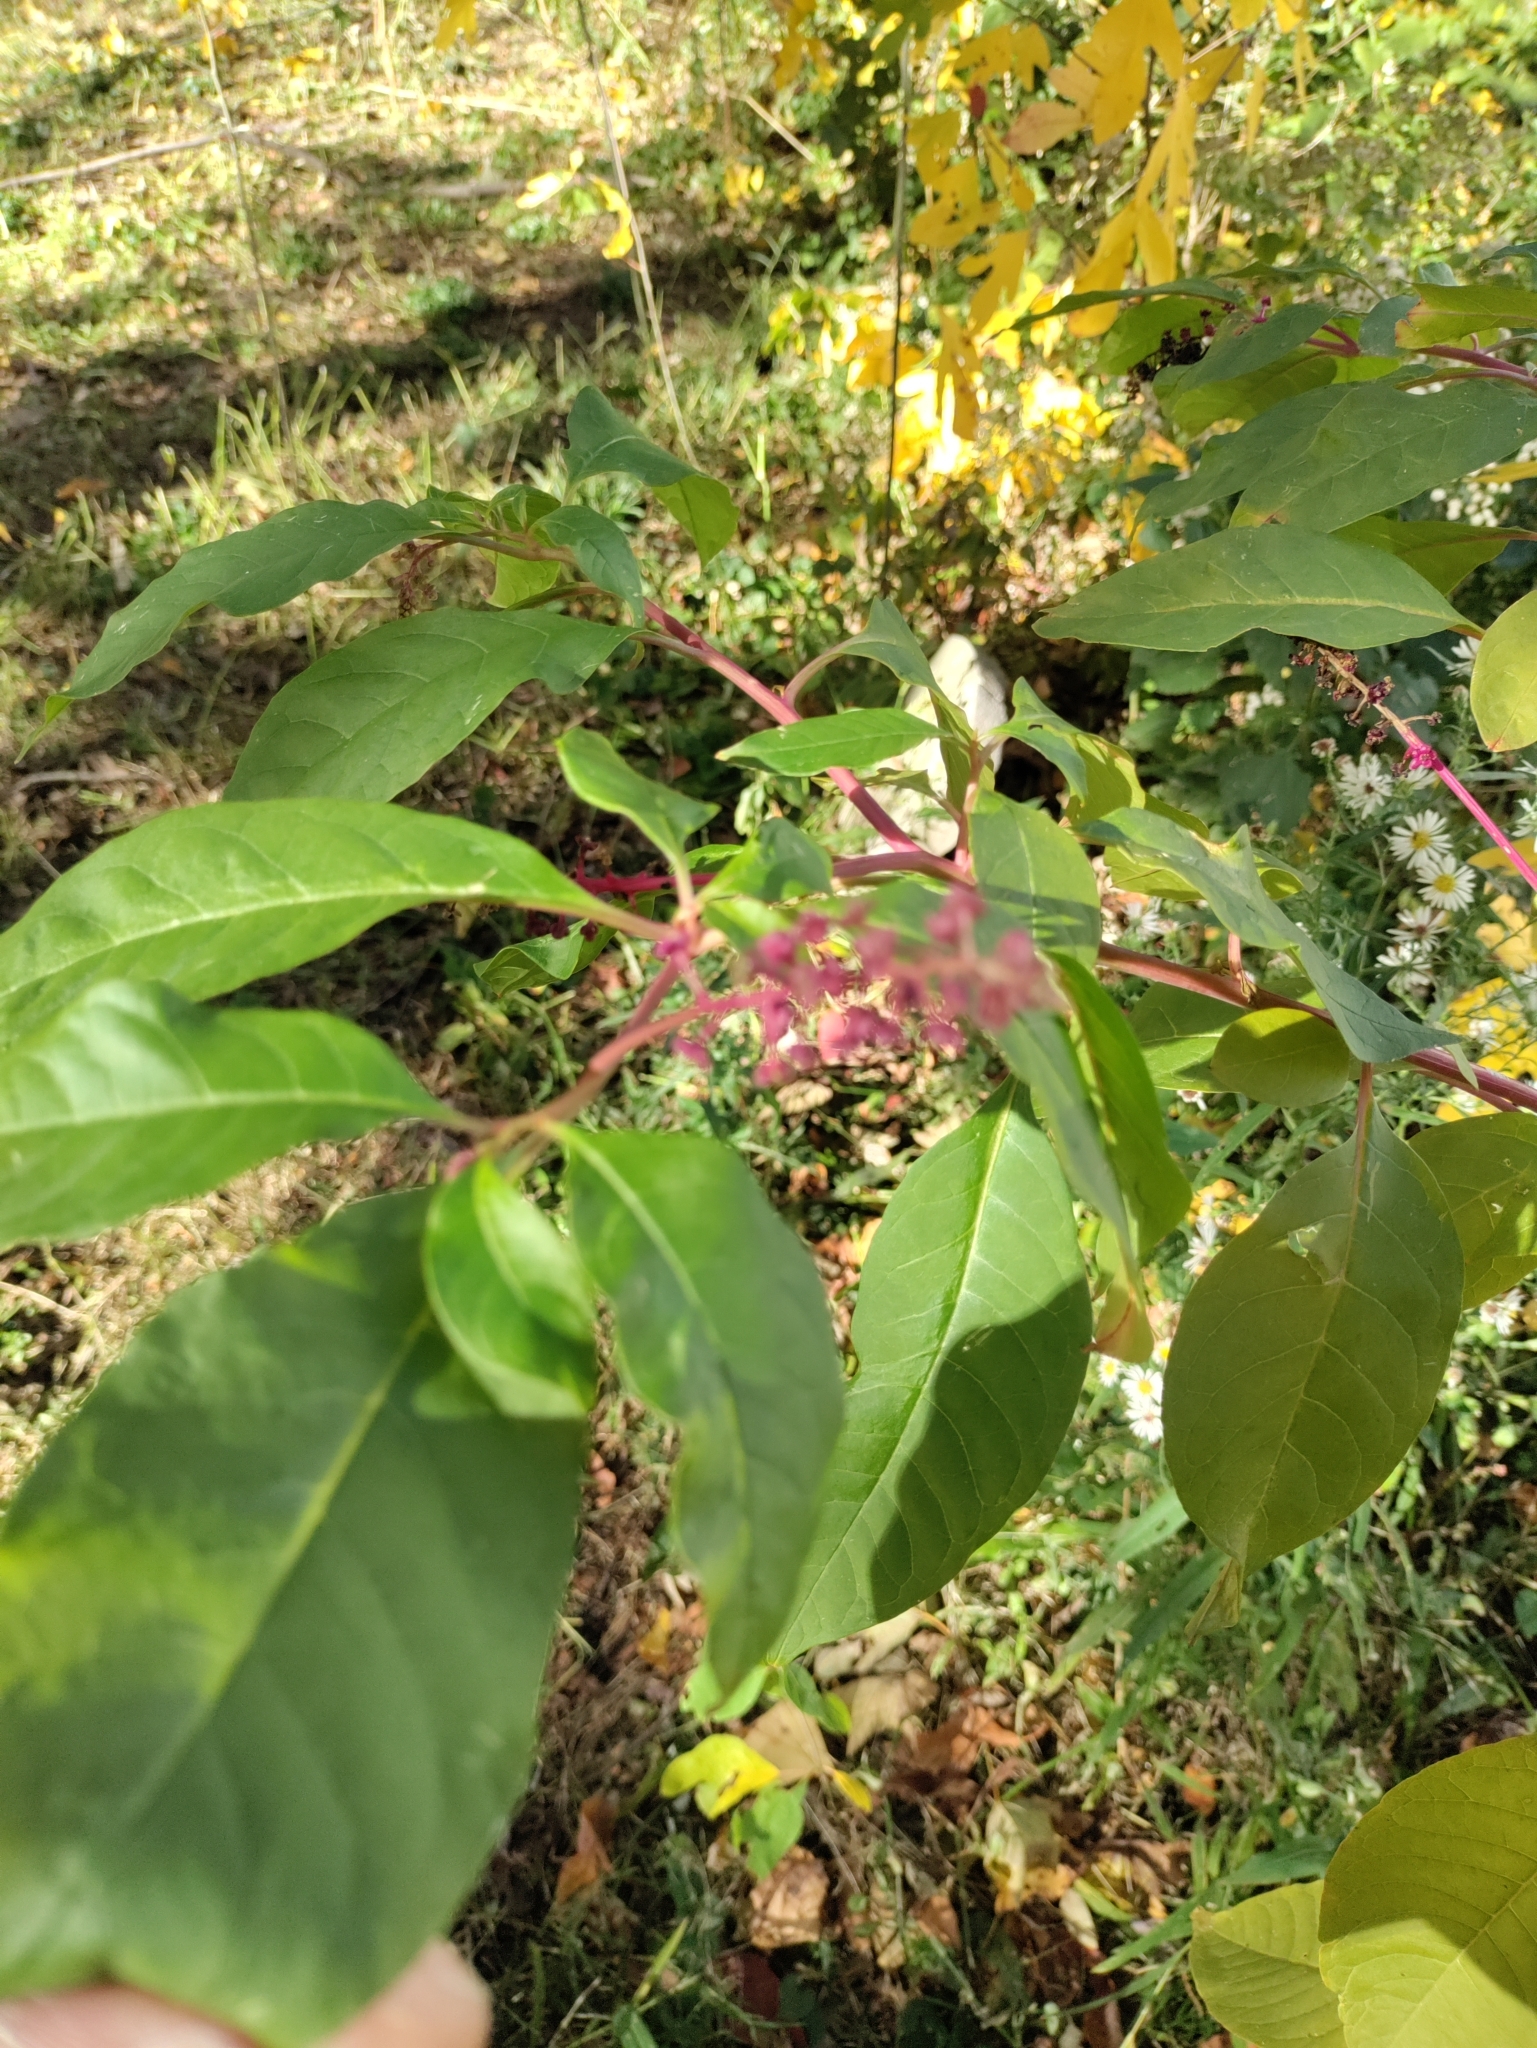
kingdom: Plantae
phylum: Tracheophyta
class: Magnoliopsida
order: Caryophyllales
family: Phytolaccaceae
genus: Phytolacca
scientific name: Phytolacca americana
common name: American pokeweed
